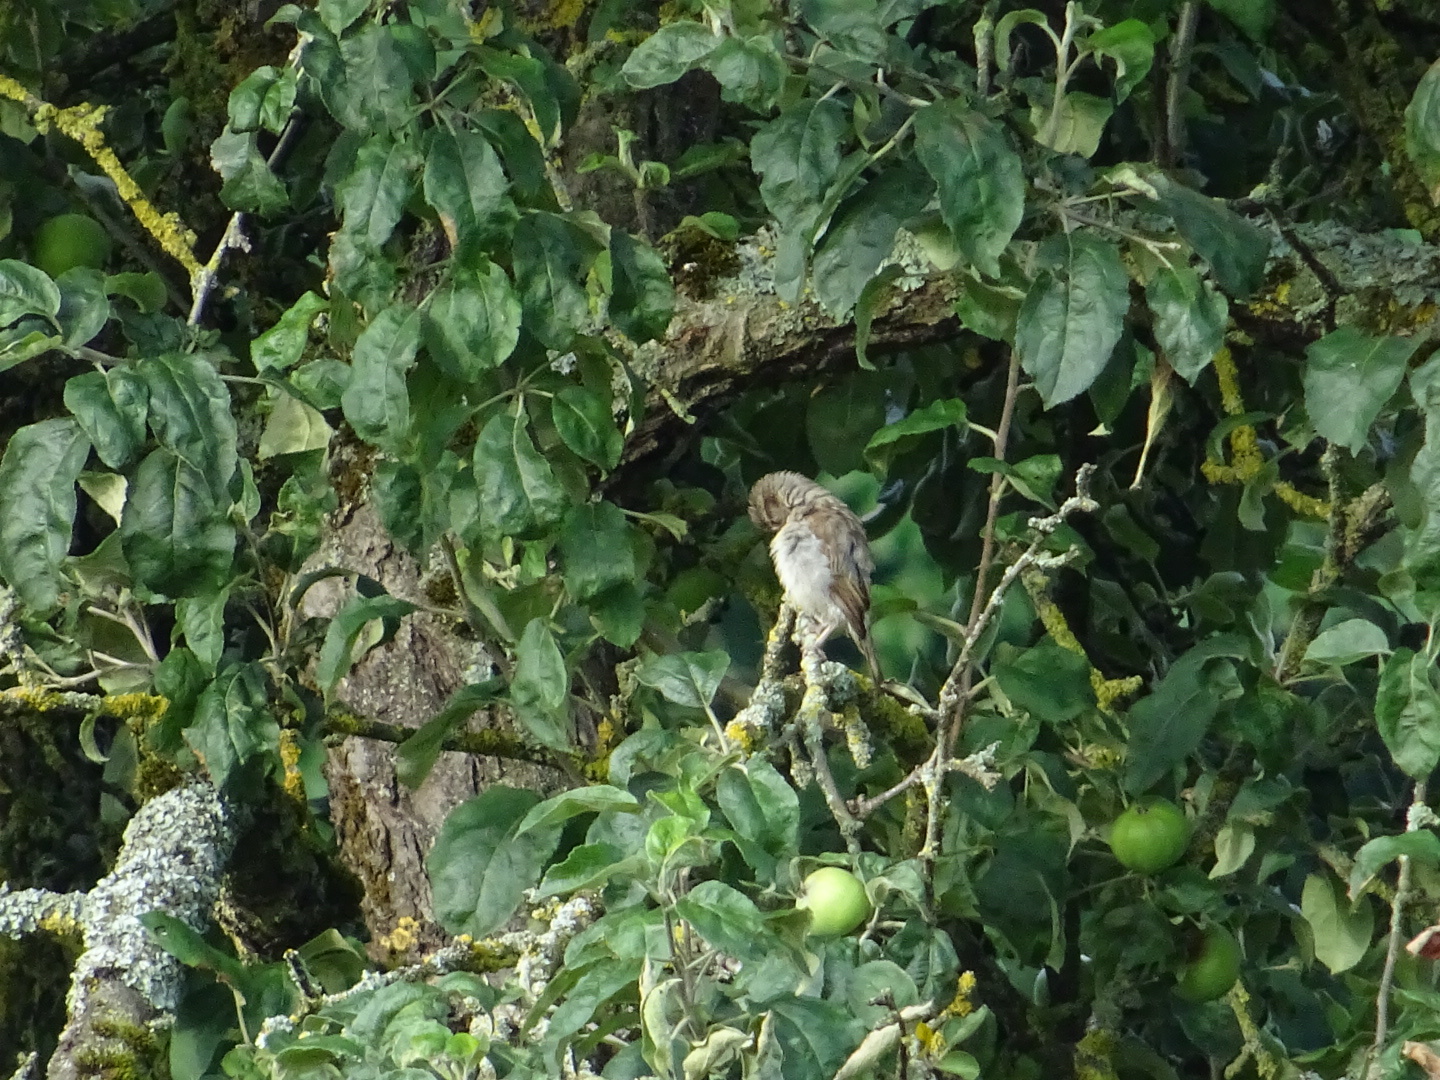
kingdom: Animalia
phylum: Chordata
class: Aves
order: Passeriformes
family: Passeridae
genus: Passer
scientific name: Passer domesticus
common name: House sparrow
